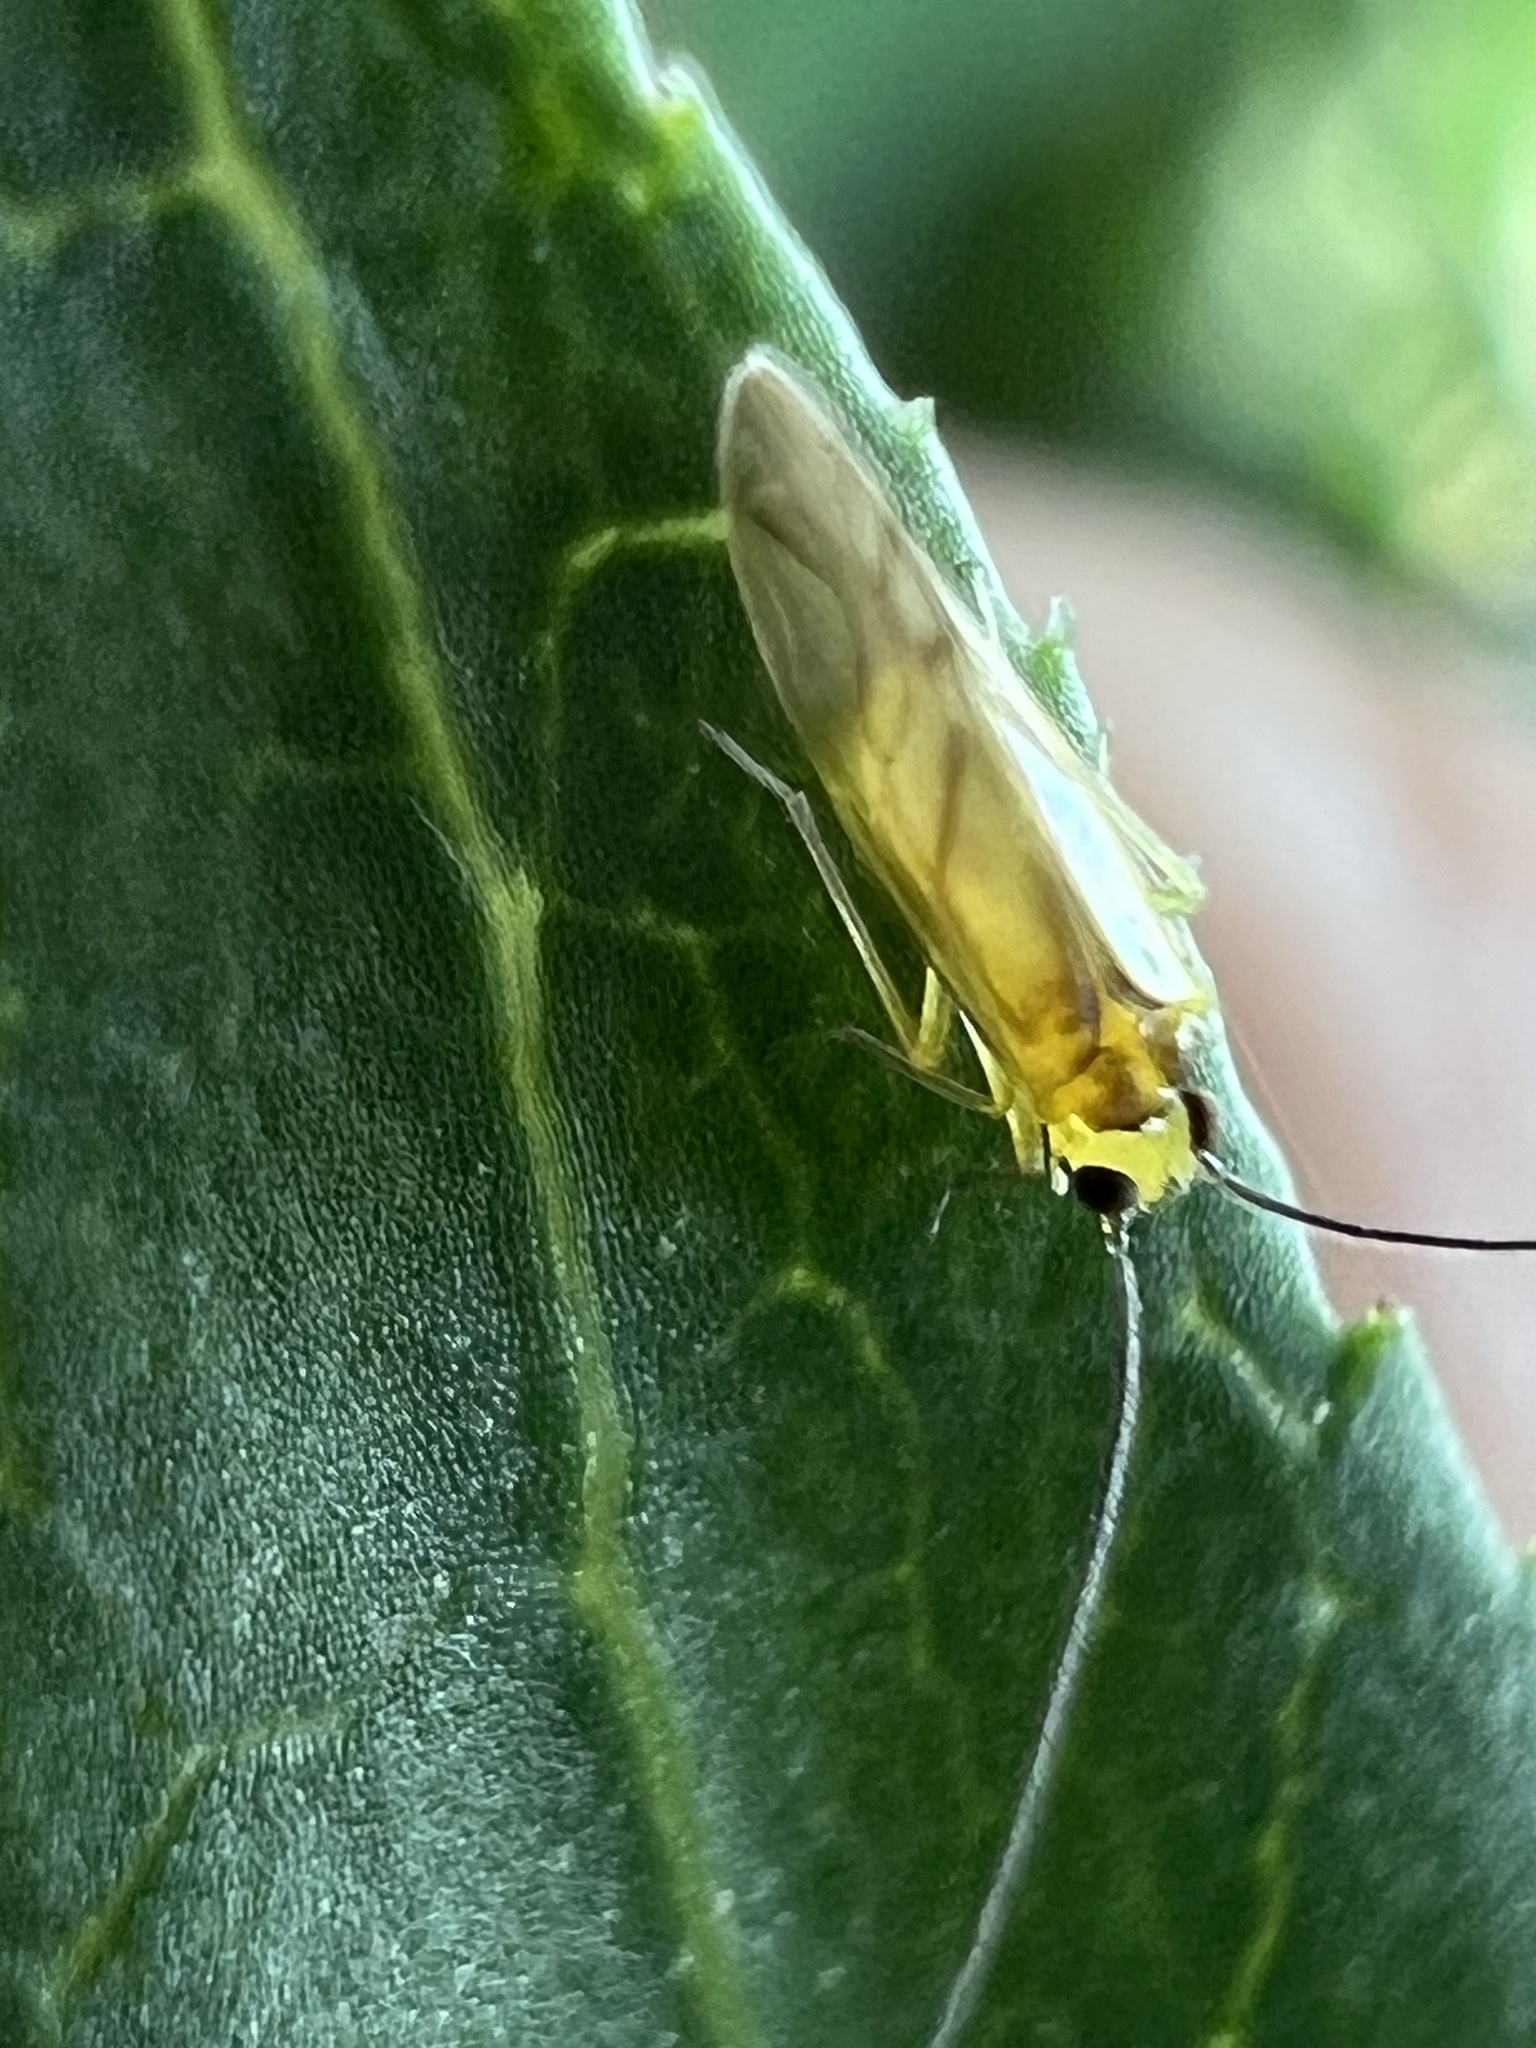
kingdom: Animalia
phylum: Arthropoda
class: Insecta
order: Psocodea
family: Caeciliusidae
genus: Valenzuela
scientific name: Valenzuela flavidus
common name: Yellow barklouse
